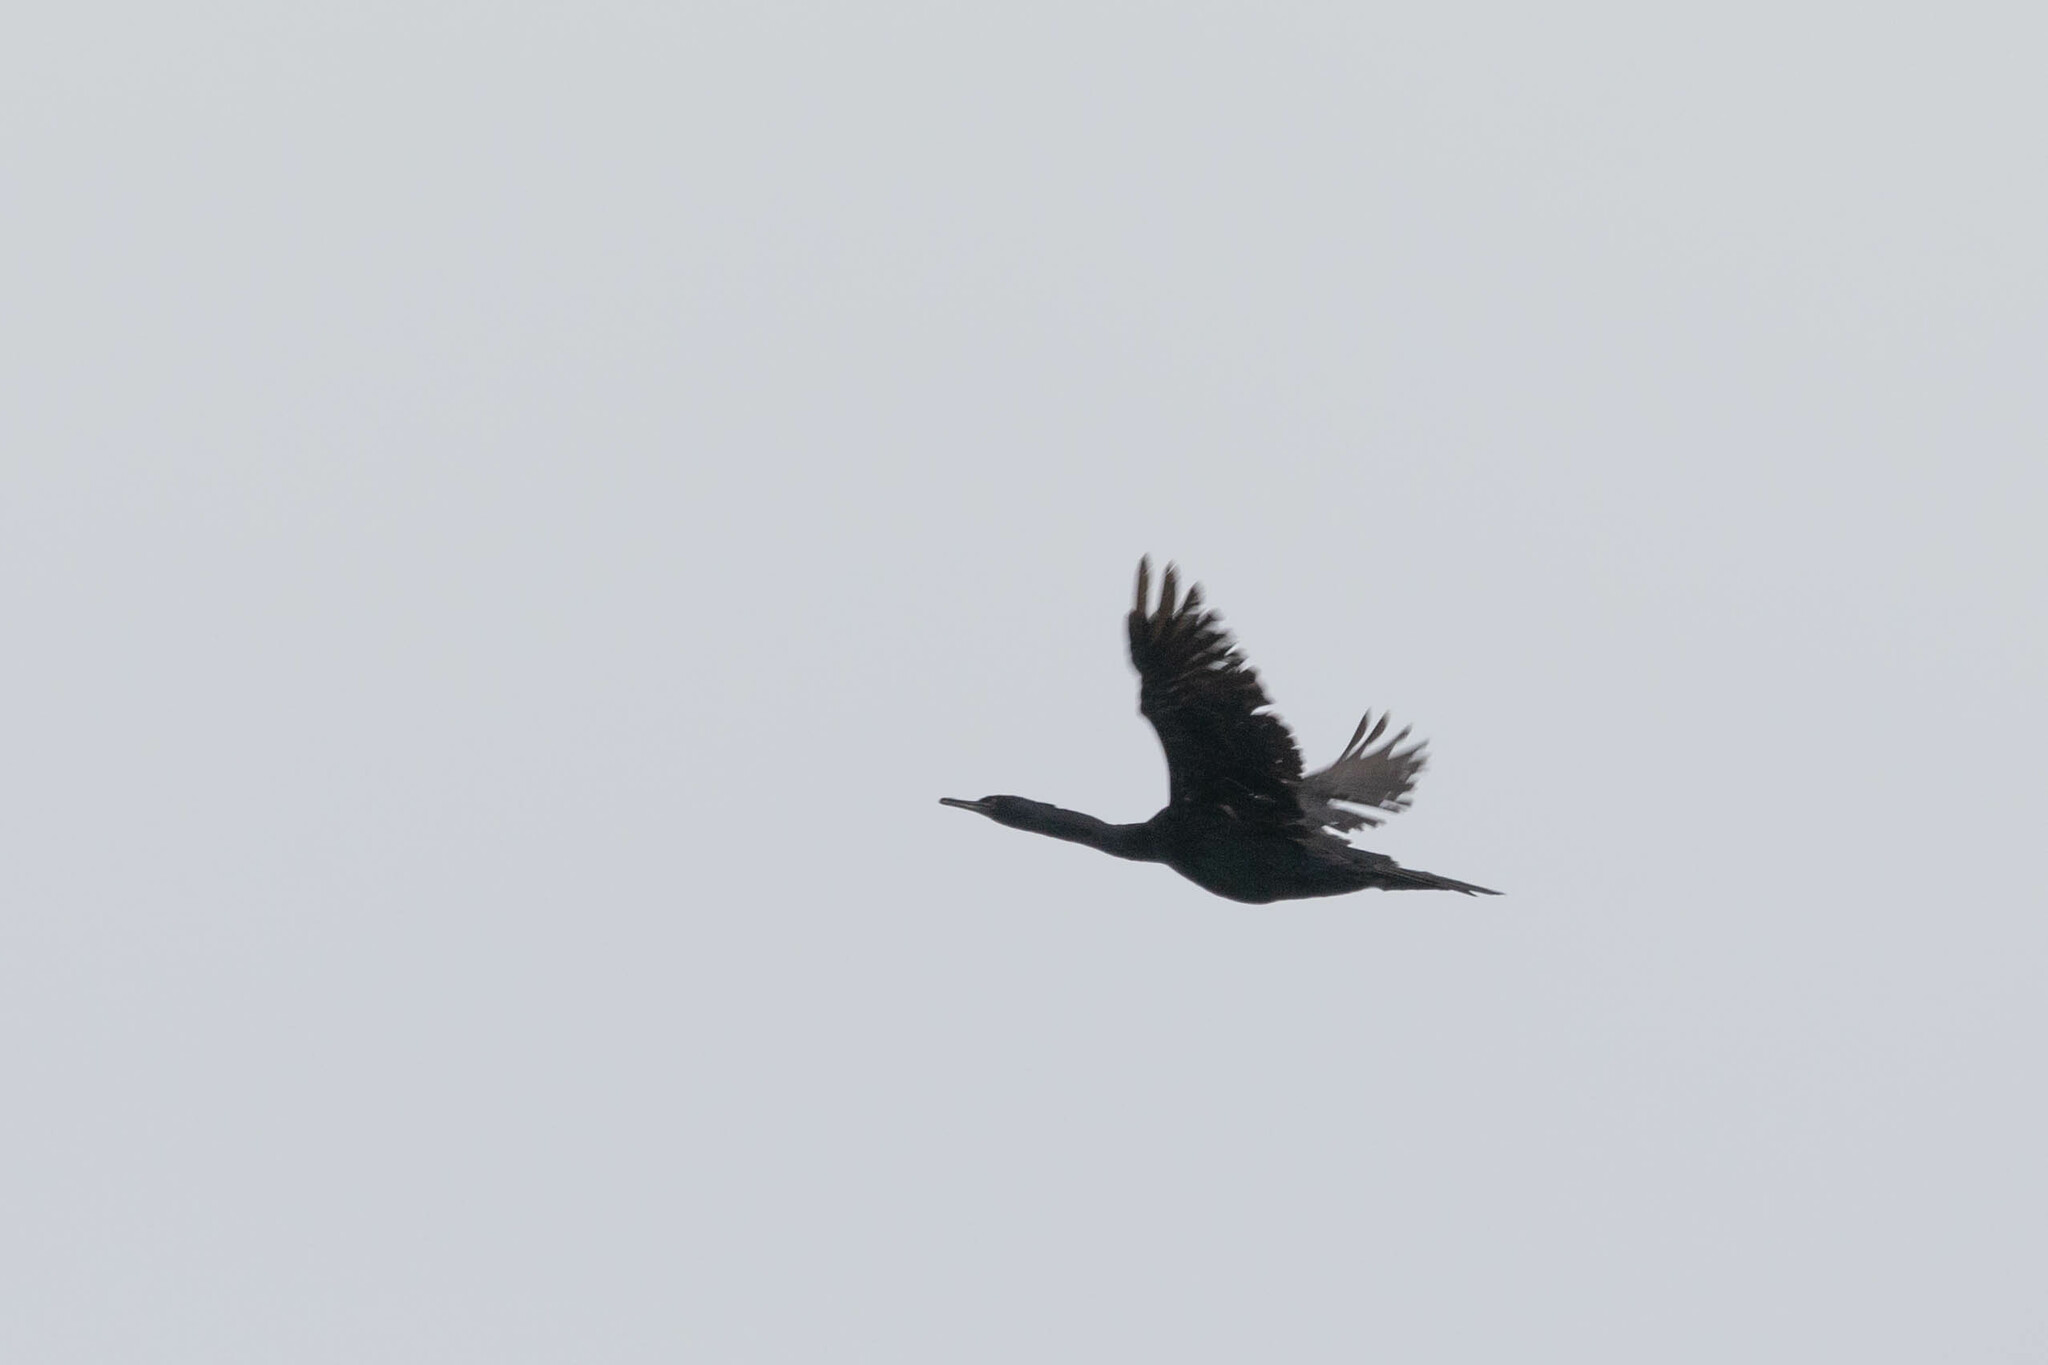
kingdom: Animalia
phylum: Chordata
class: Aves
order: Suliformes
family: Phalacrocoracidae
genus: Phalacrocorax
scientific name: Phalacrocorax pelagicus
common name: Pelagic cormorant
